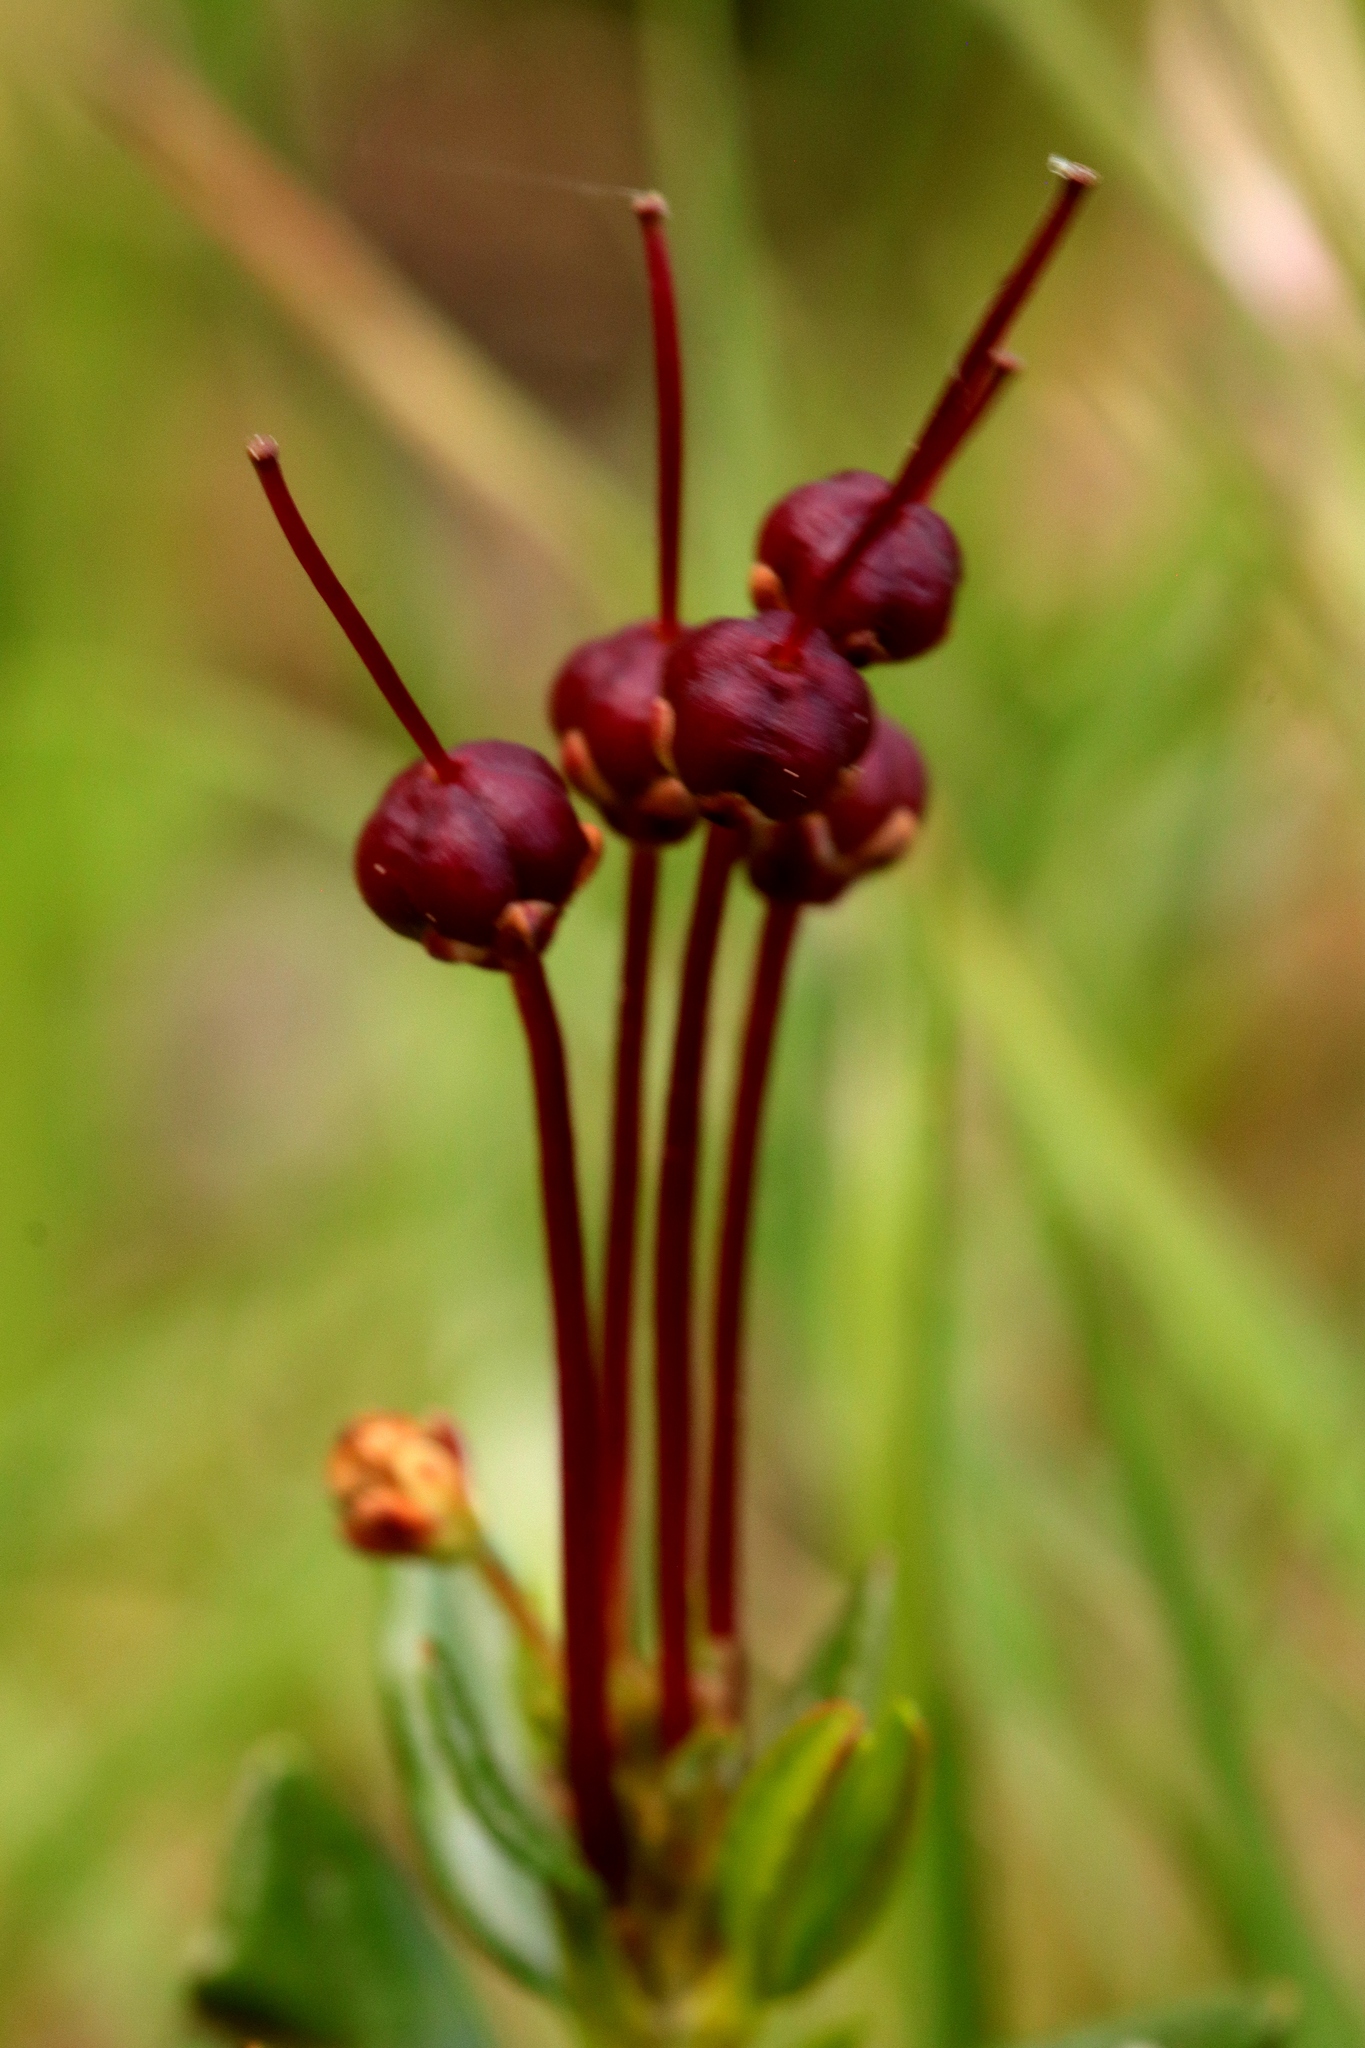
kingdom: Plantae
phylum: Tracheophyta
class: Magnoliopsida
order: Ericales
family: Ericaceae
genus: Kalmia
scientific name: Kalmia microphylla
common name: Alpine bog laurel
